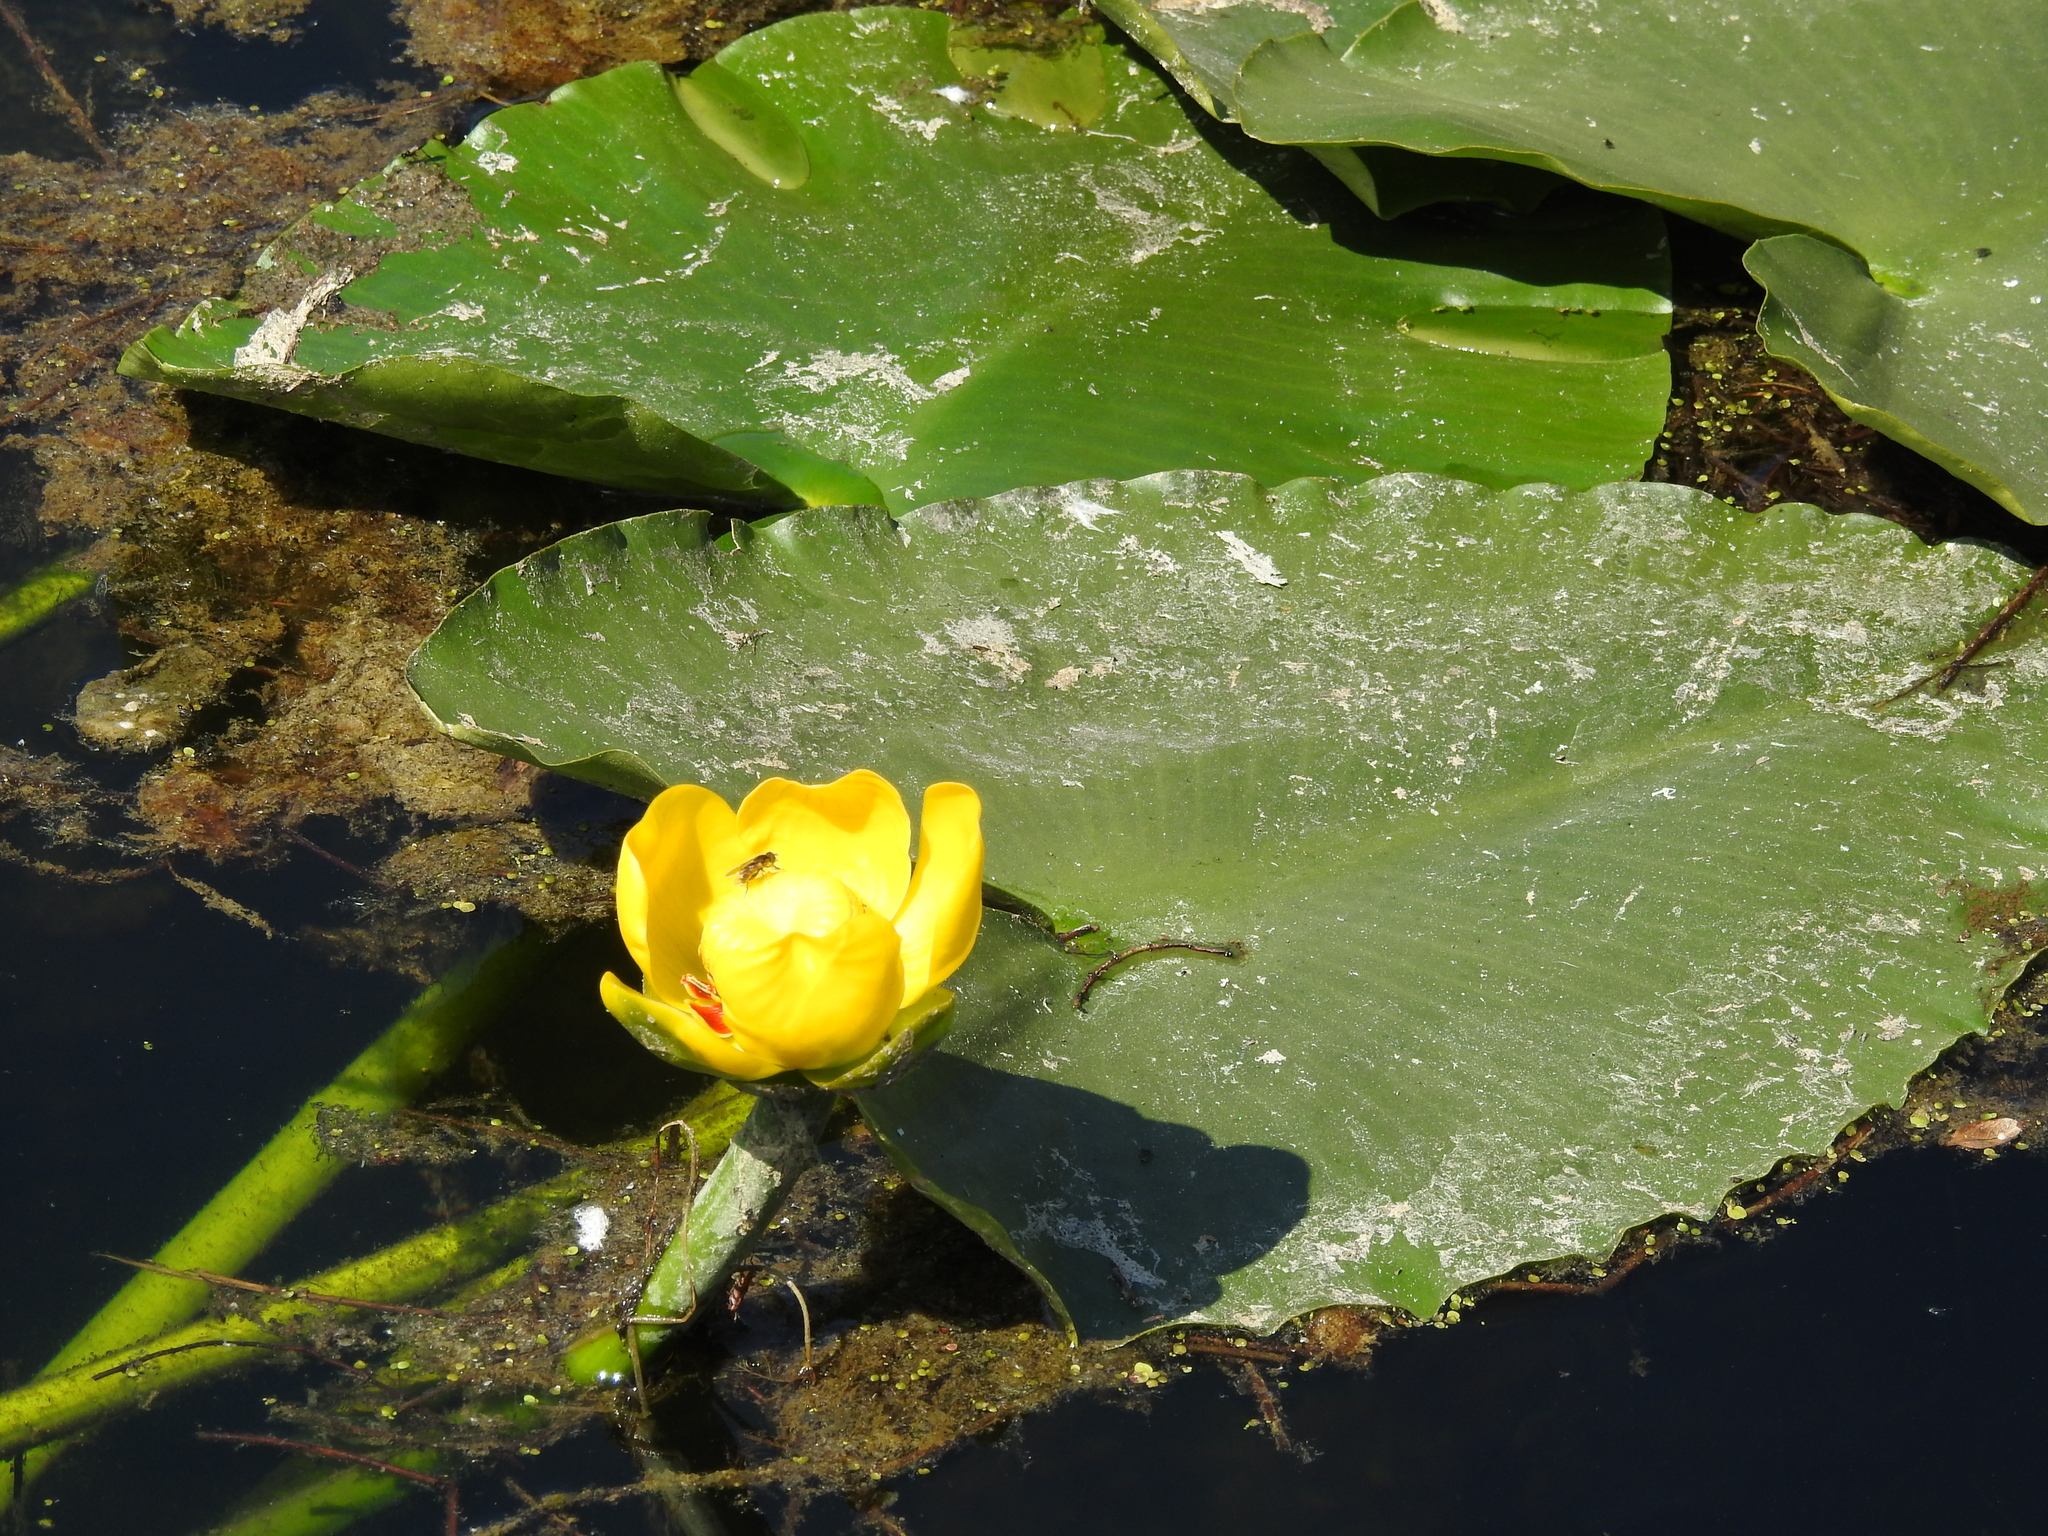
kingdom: Plantae
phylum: Tracheophyta
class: Magnoliopsida
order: Nymphaeales
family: Nymphaeaceae
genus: Nuphar
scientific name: Nuphar polysepala
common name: Rocky mountain cow-lily
